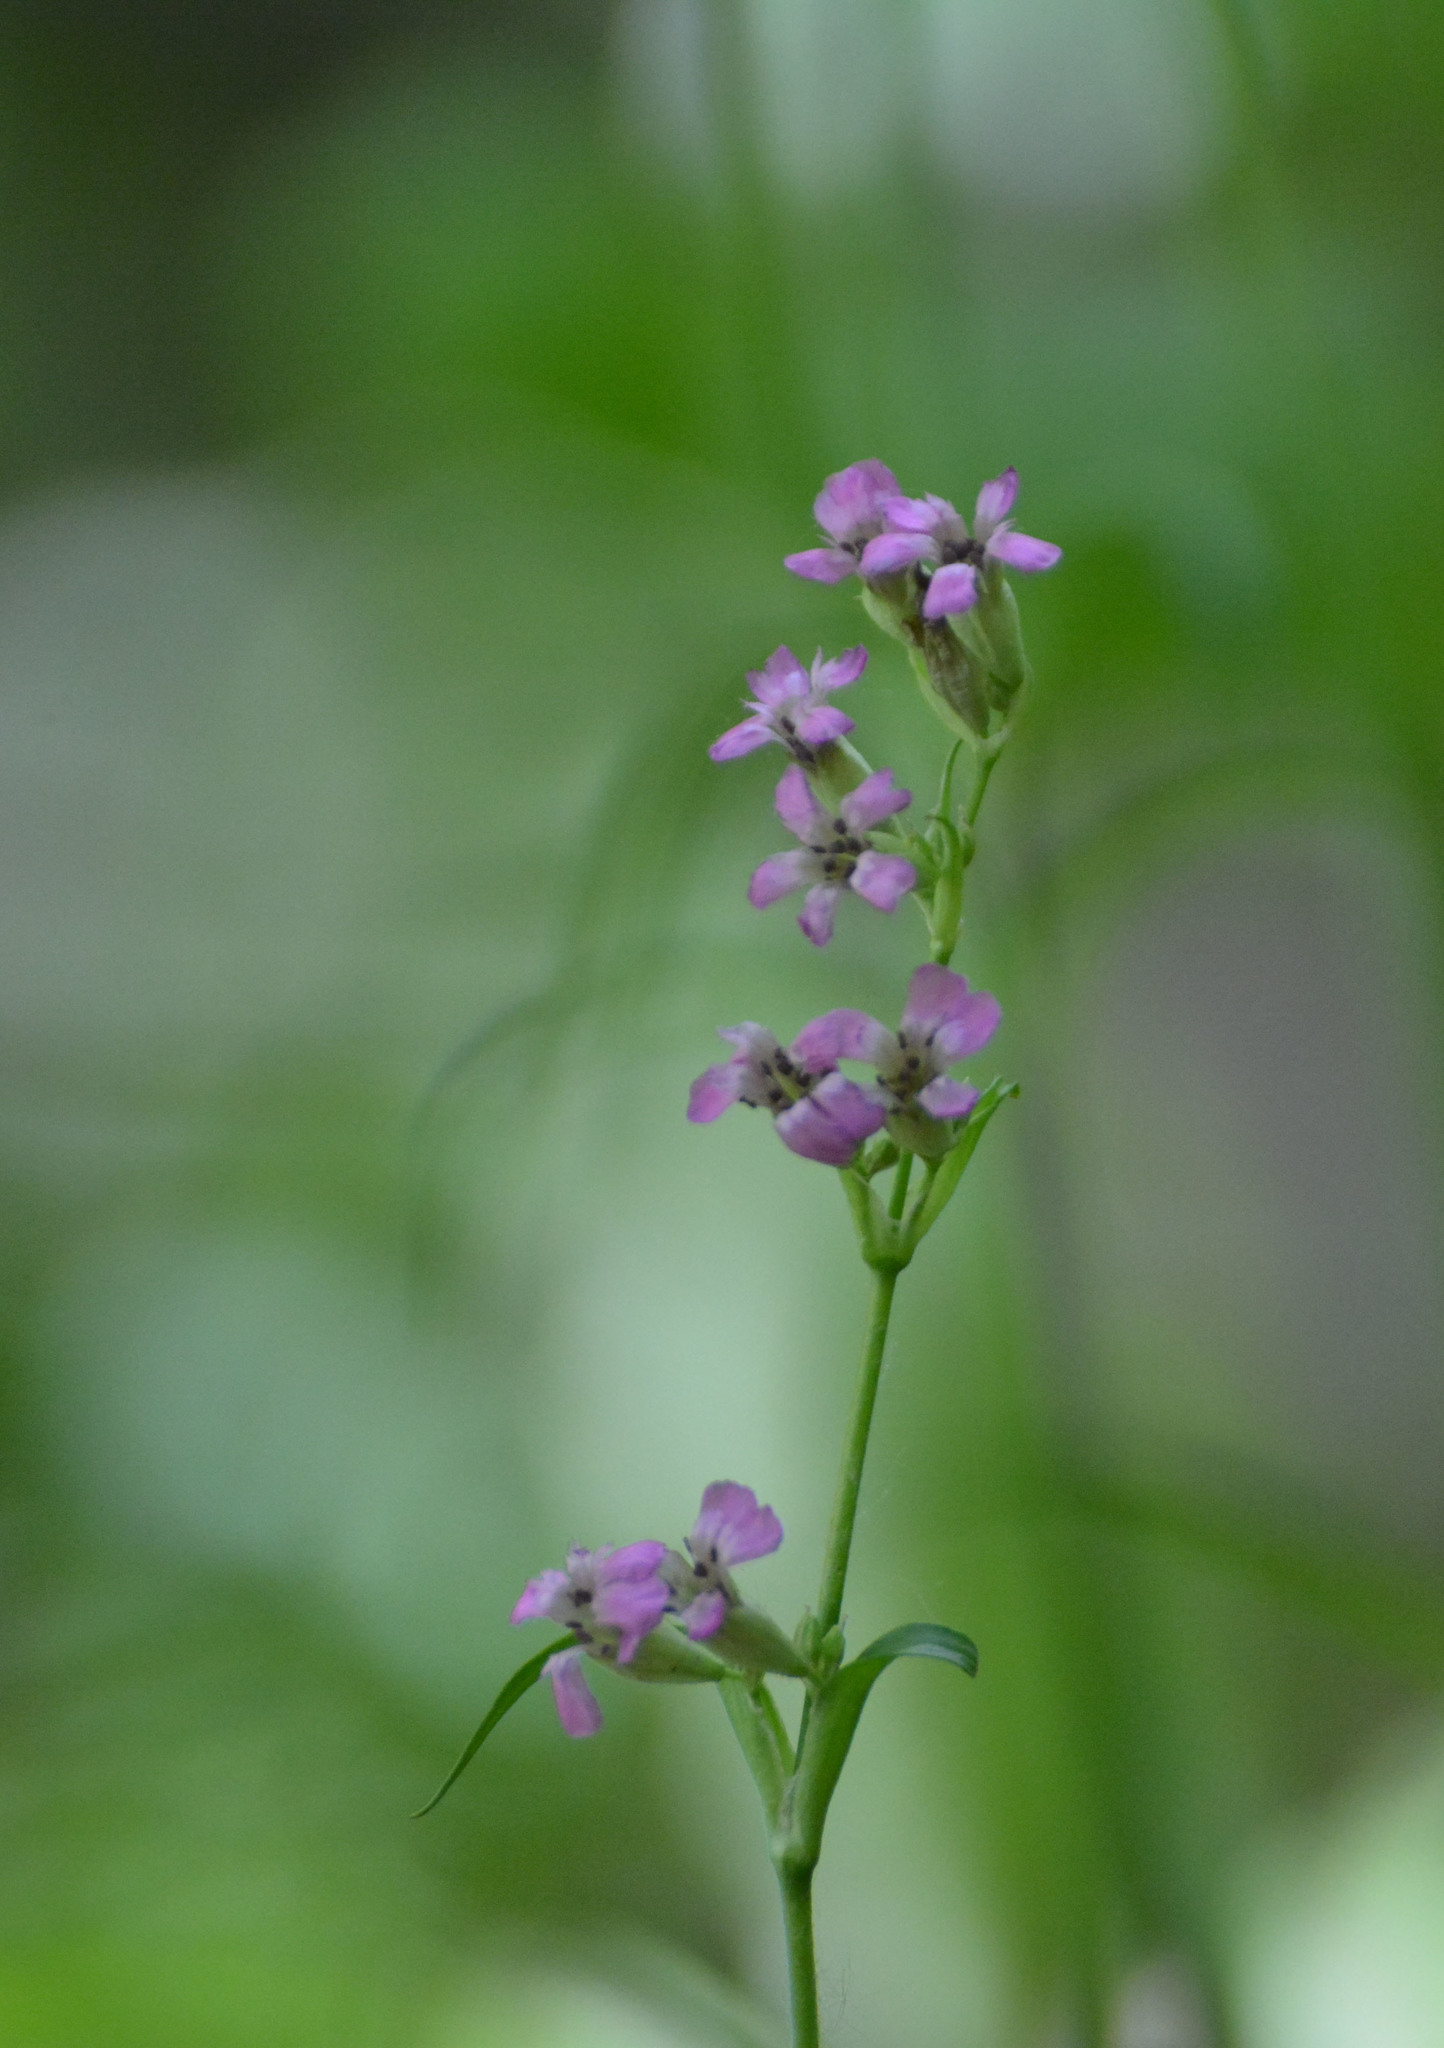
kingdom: Plantae
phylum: Tracheophyta
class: Magnoliopsida
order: Caryophyllales
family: Caryophyllaceae
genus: Viscaria
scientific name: Viscaria vulgaris
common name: Clammy campion
